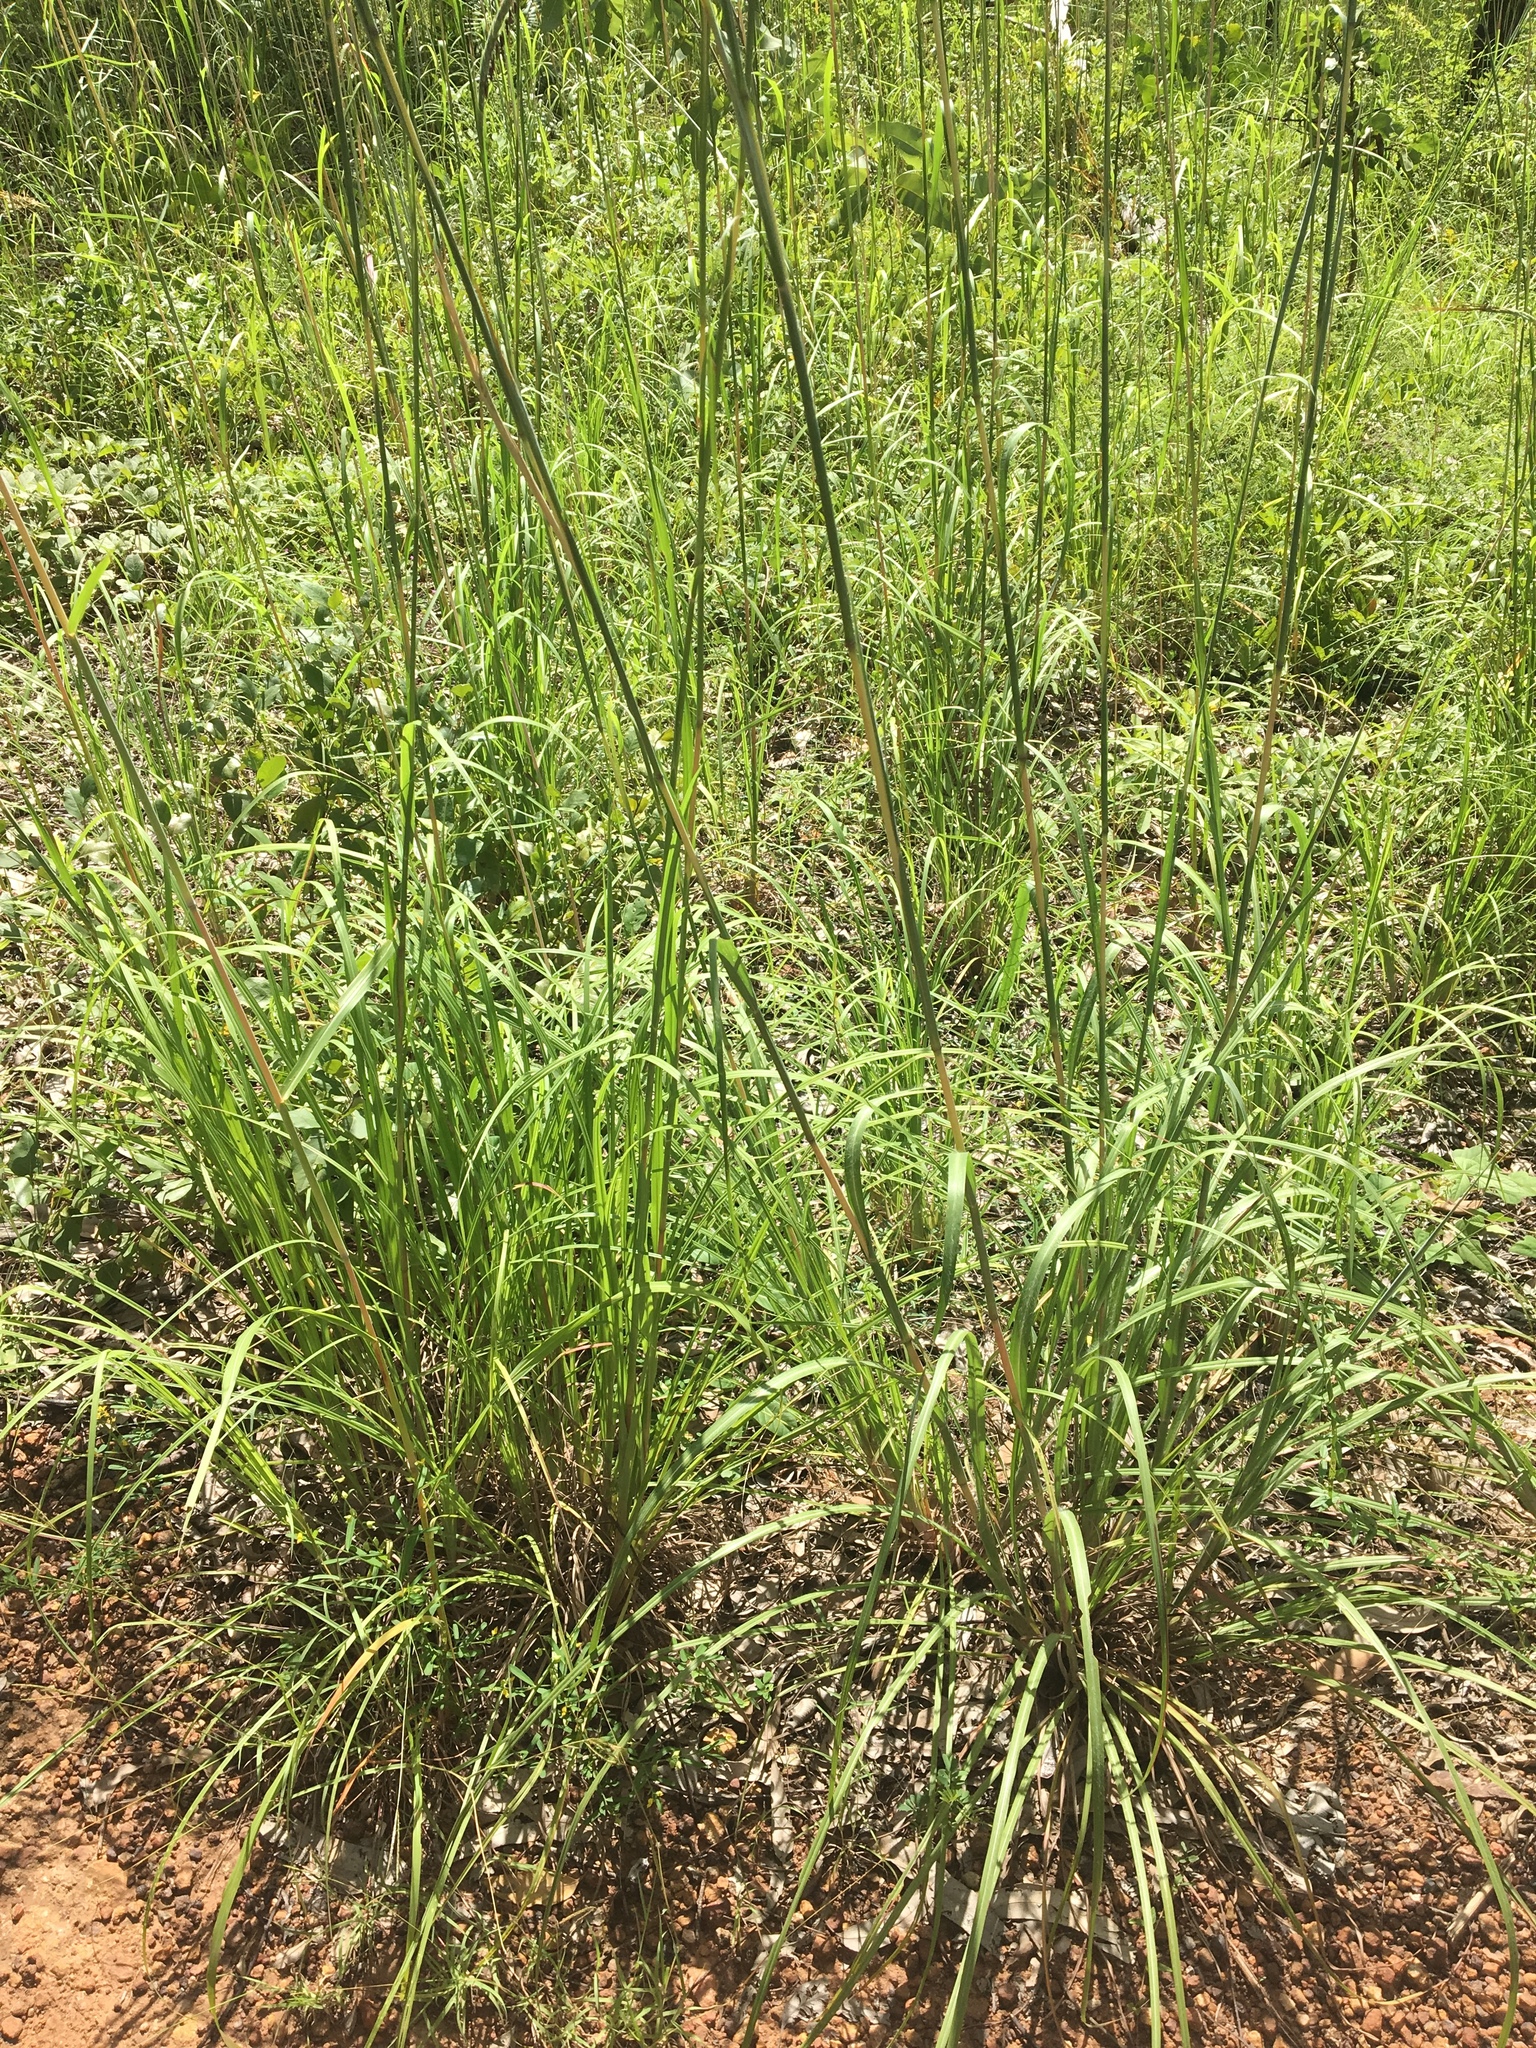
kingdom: Plantae
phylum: Tracheophyta
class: Liliopsida
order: Poales
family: Poaceae
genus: Heteropogon
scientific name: Heteropogon triticeus
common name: Sugar grass
